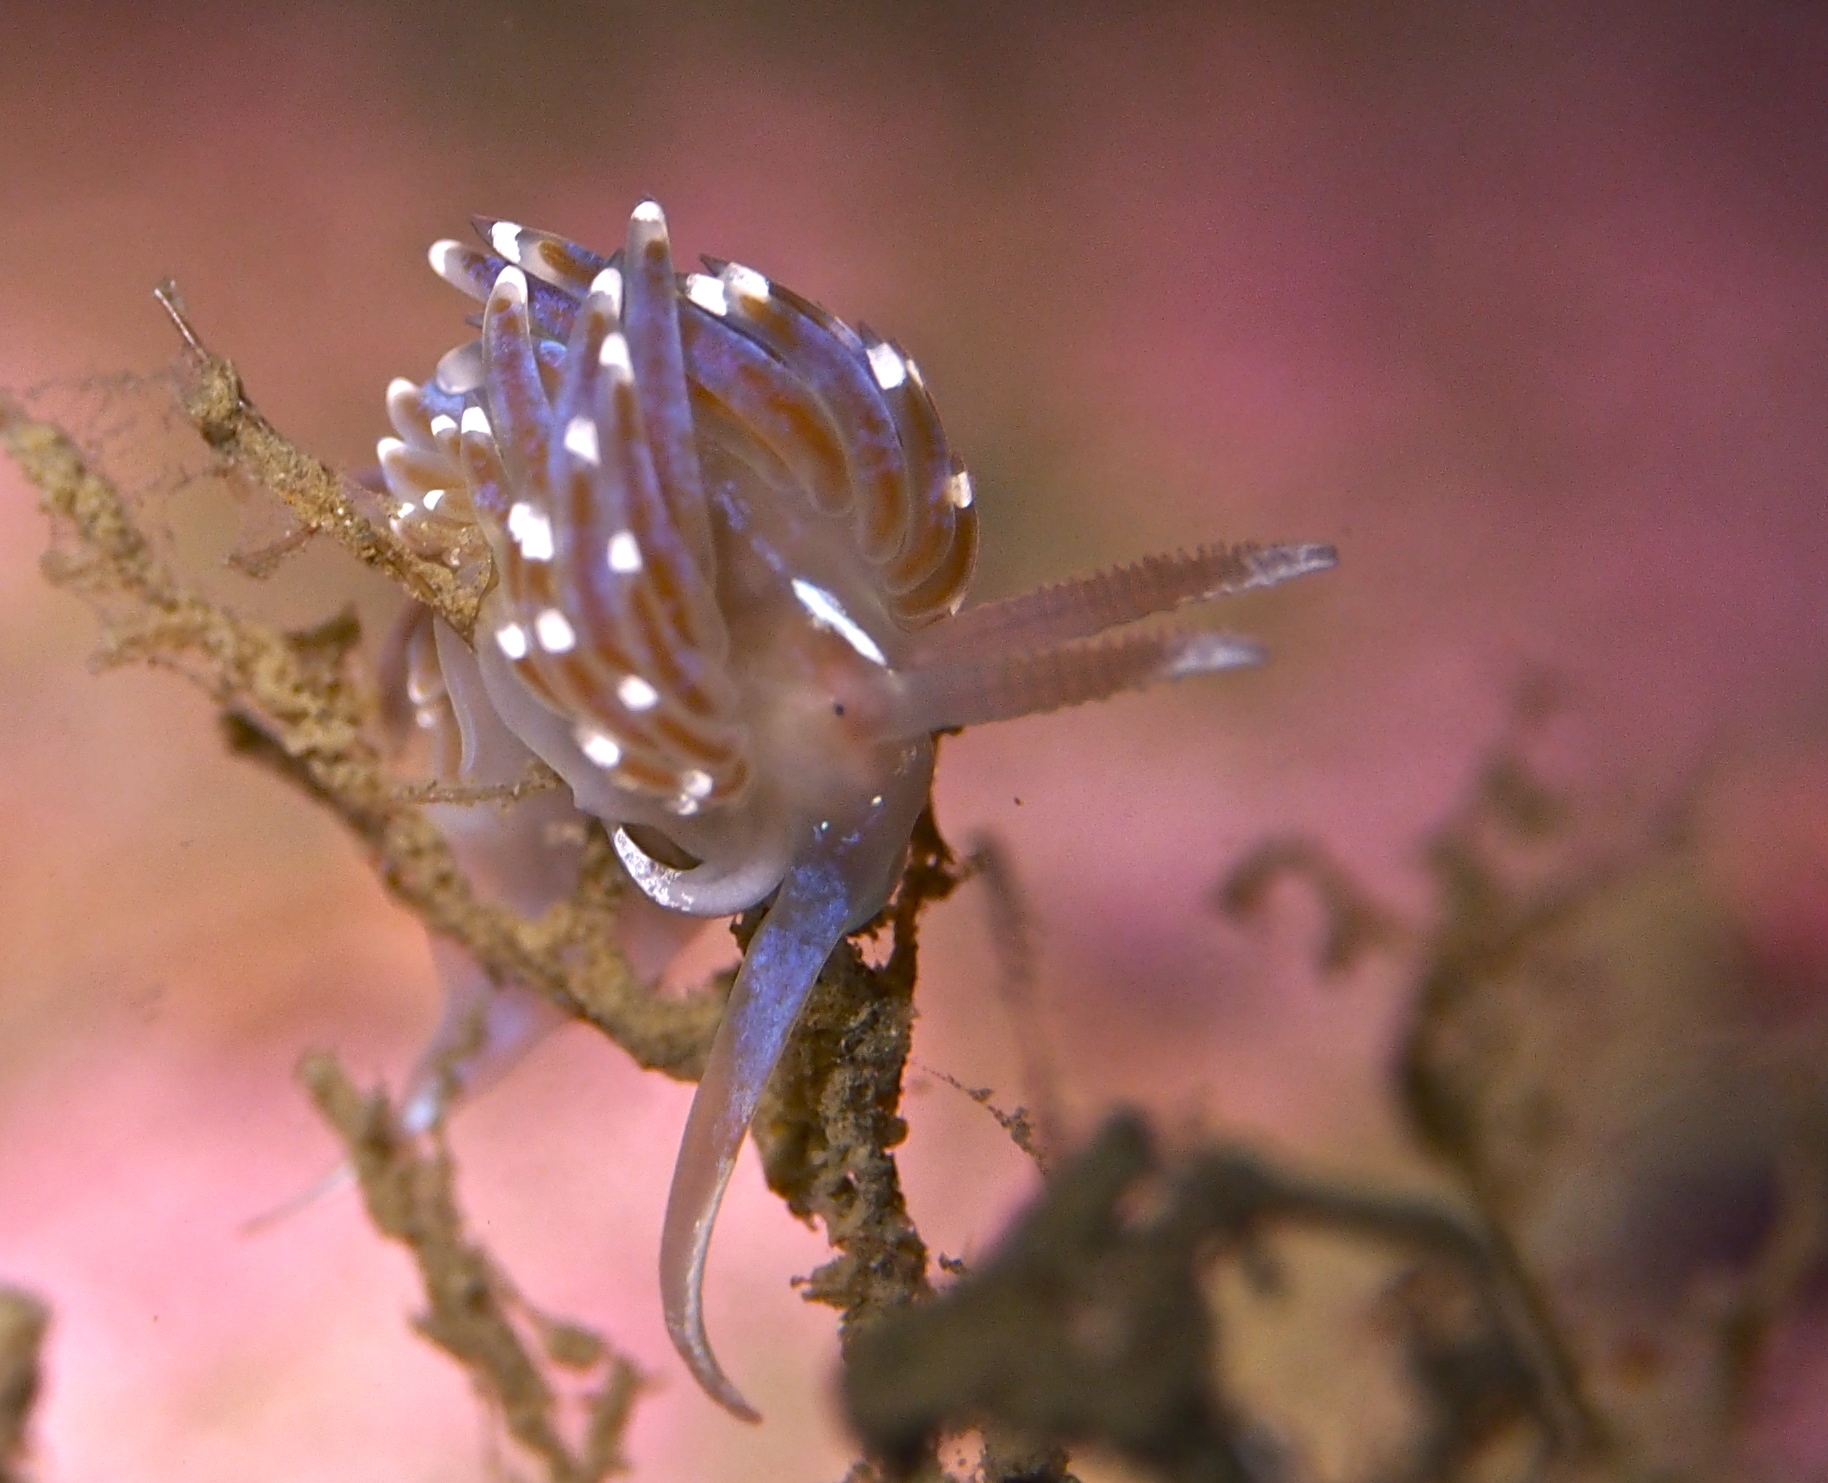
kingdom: Animalia
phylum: Mollusca
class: Gastropoda
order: Nudibranchia
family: Facelinidae
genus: Facelina
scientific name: Facelina auriculata
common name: Slender facelina
